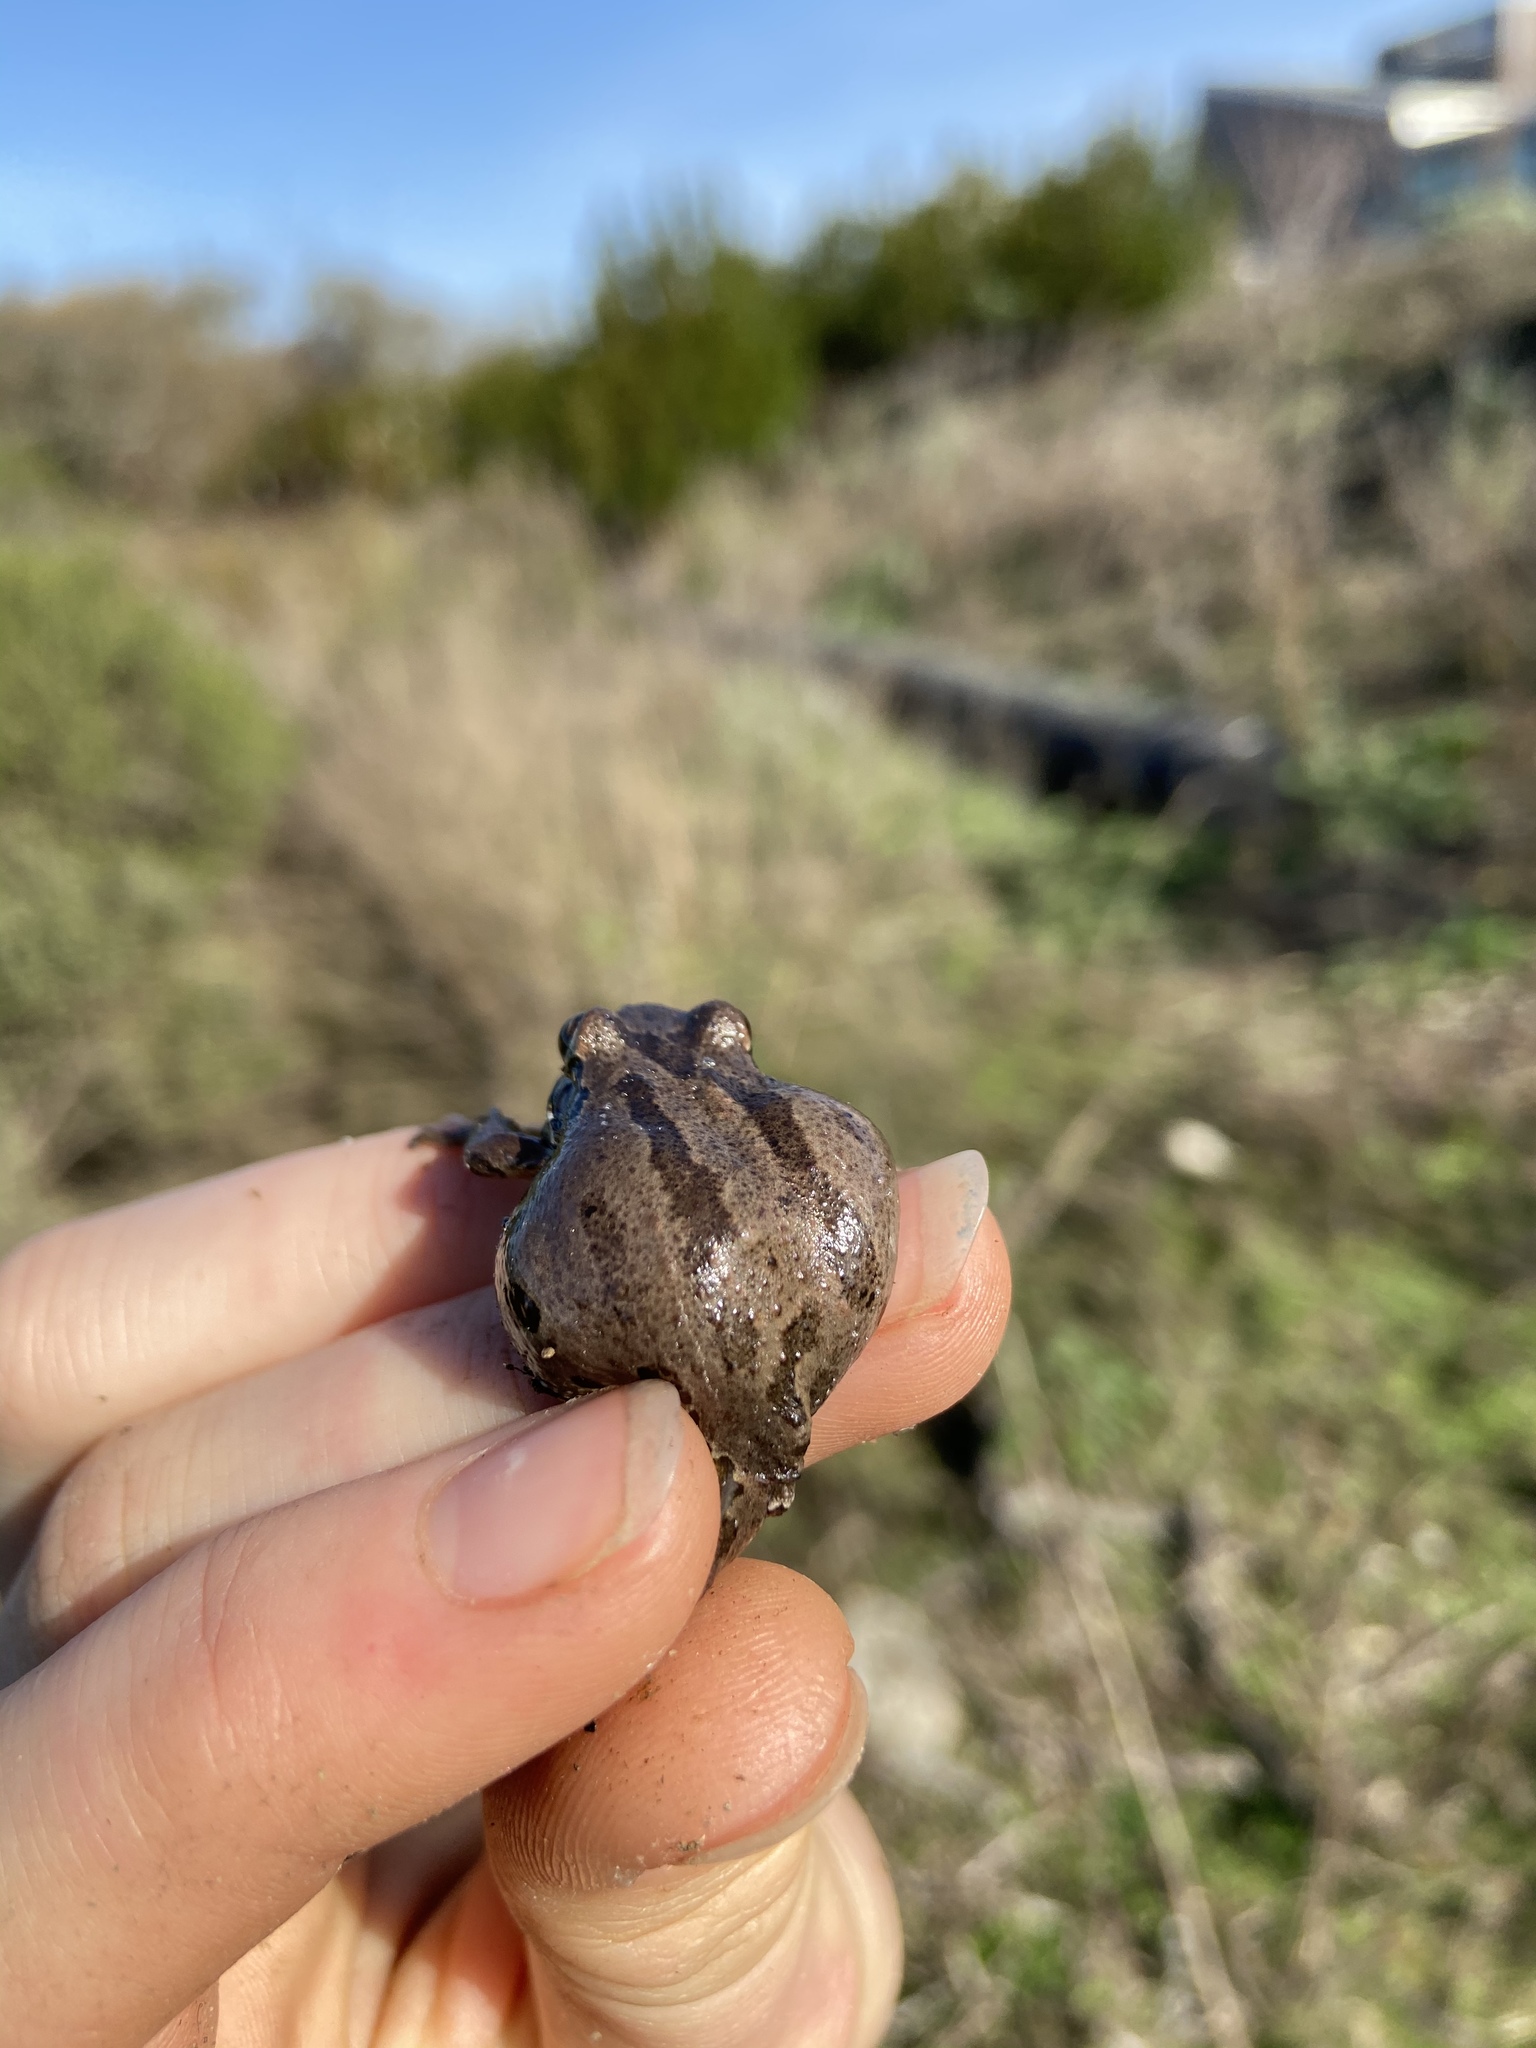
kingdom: Animalia
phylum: Chordata
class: Amphibia
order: Anura
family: Hylidae
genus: Pseudacris
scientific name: Pseudacris regilla
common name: Pacific chorus frog
